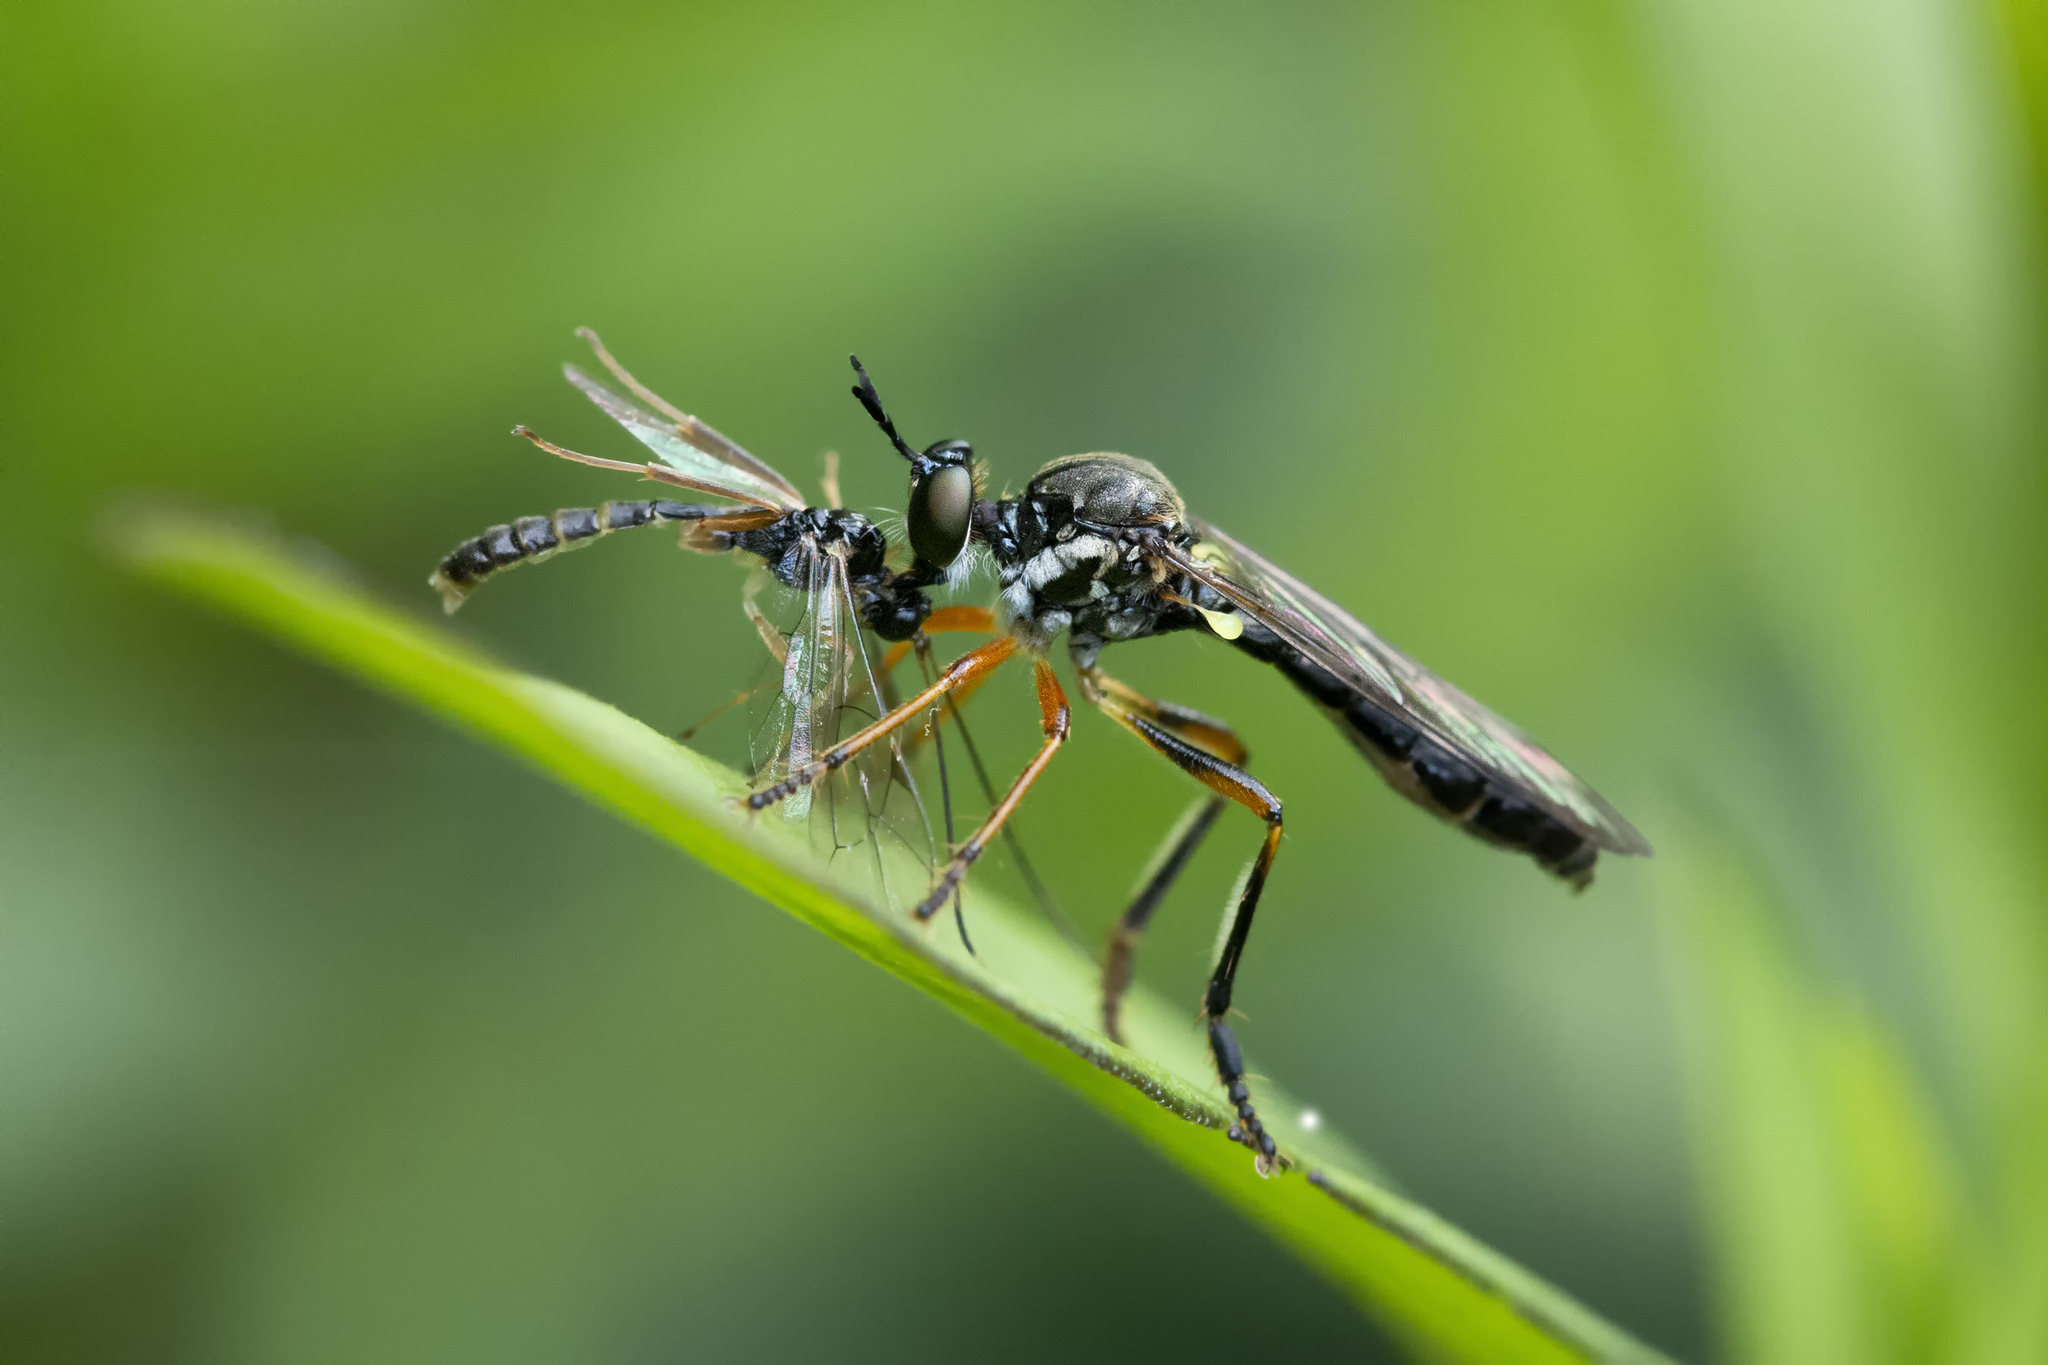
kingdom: Animalia
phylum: Arthropoda
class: Insecta
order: Diptera
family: Asilidae
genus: Dioctria
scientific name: Dioctria hyalipennis
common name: Stripe-legged robberfly
